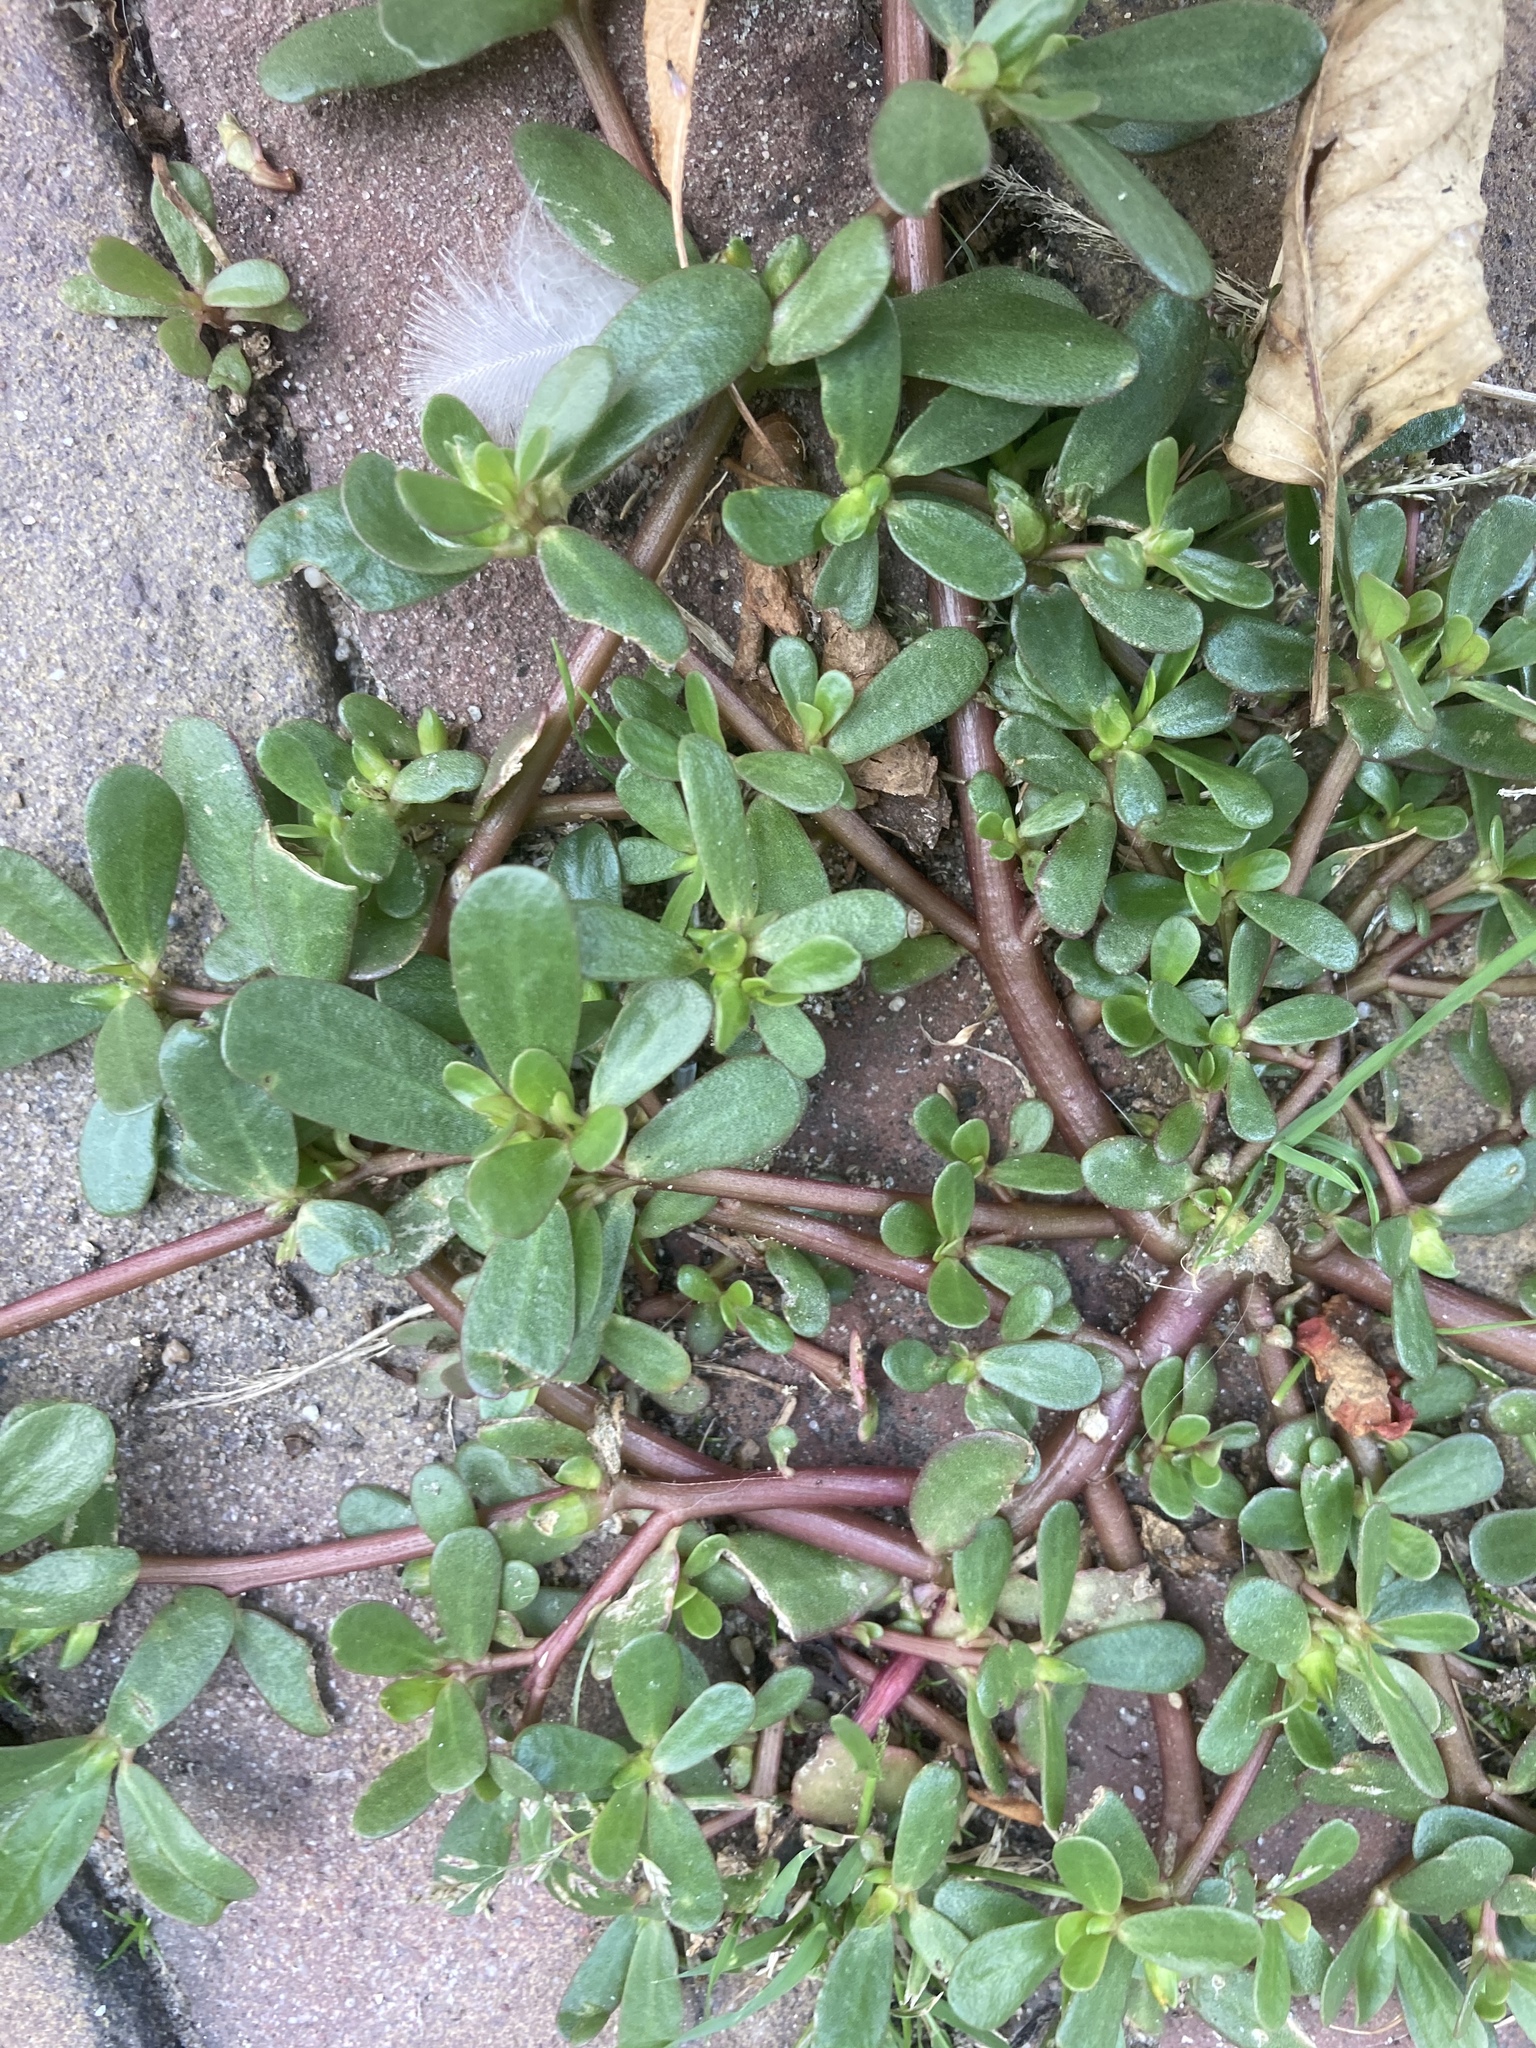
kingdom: Plantae
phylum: Tracheophyta
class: Magnoliopsida
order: Caryophyllales
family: Portulacaceae
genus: Portulaca
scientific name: Portulaca oleracea
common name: Common purslane
